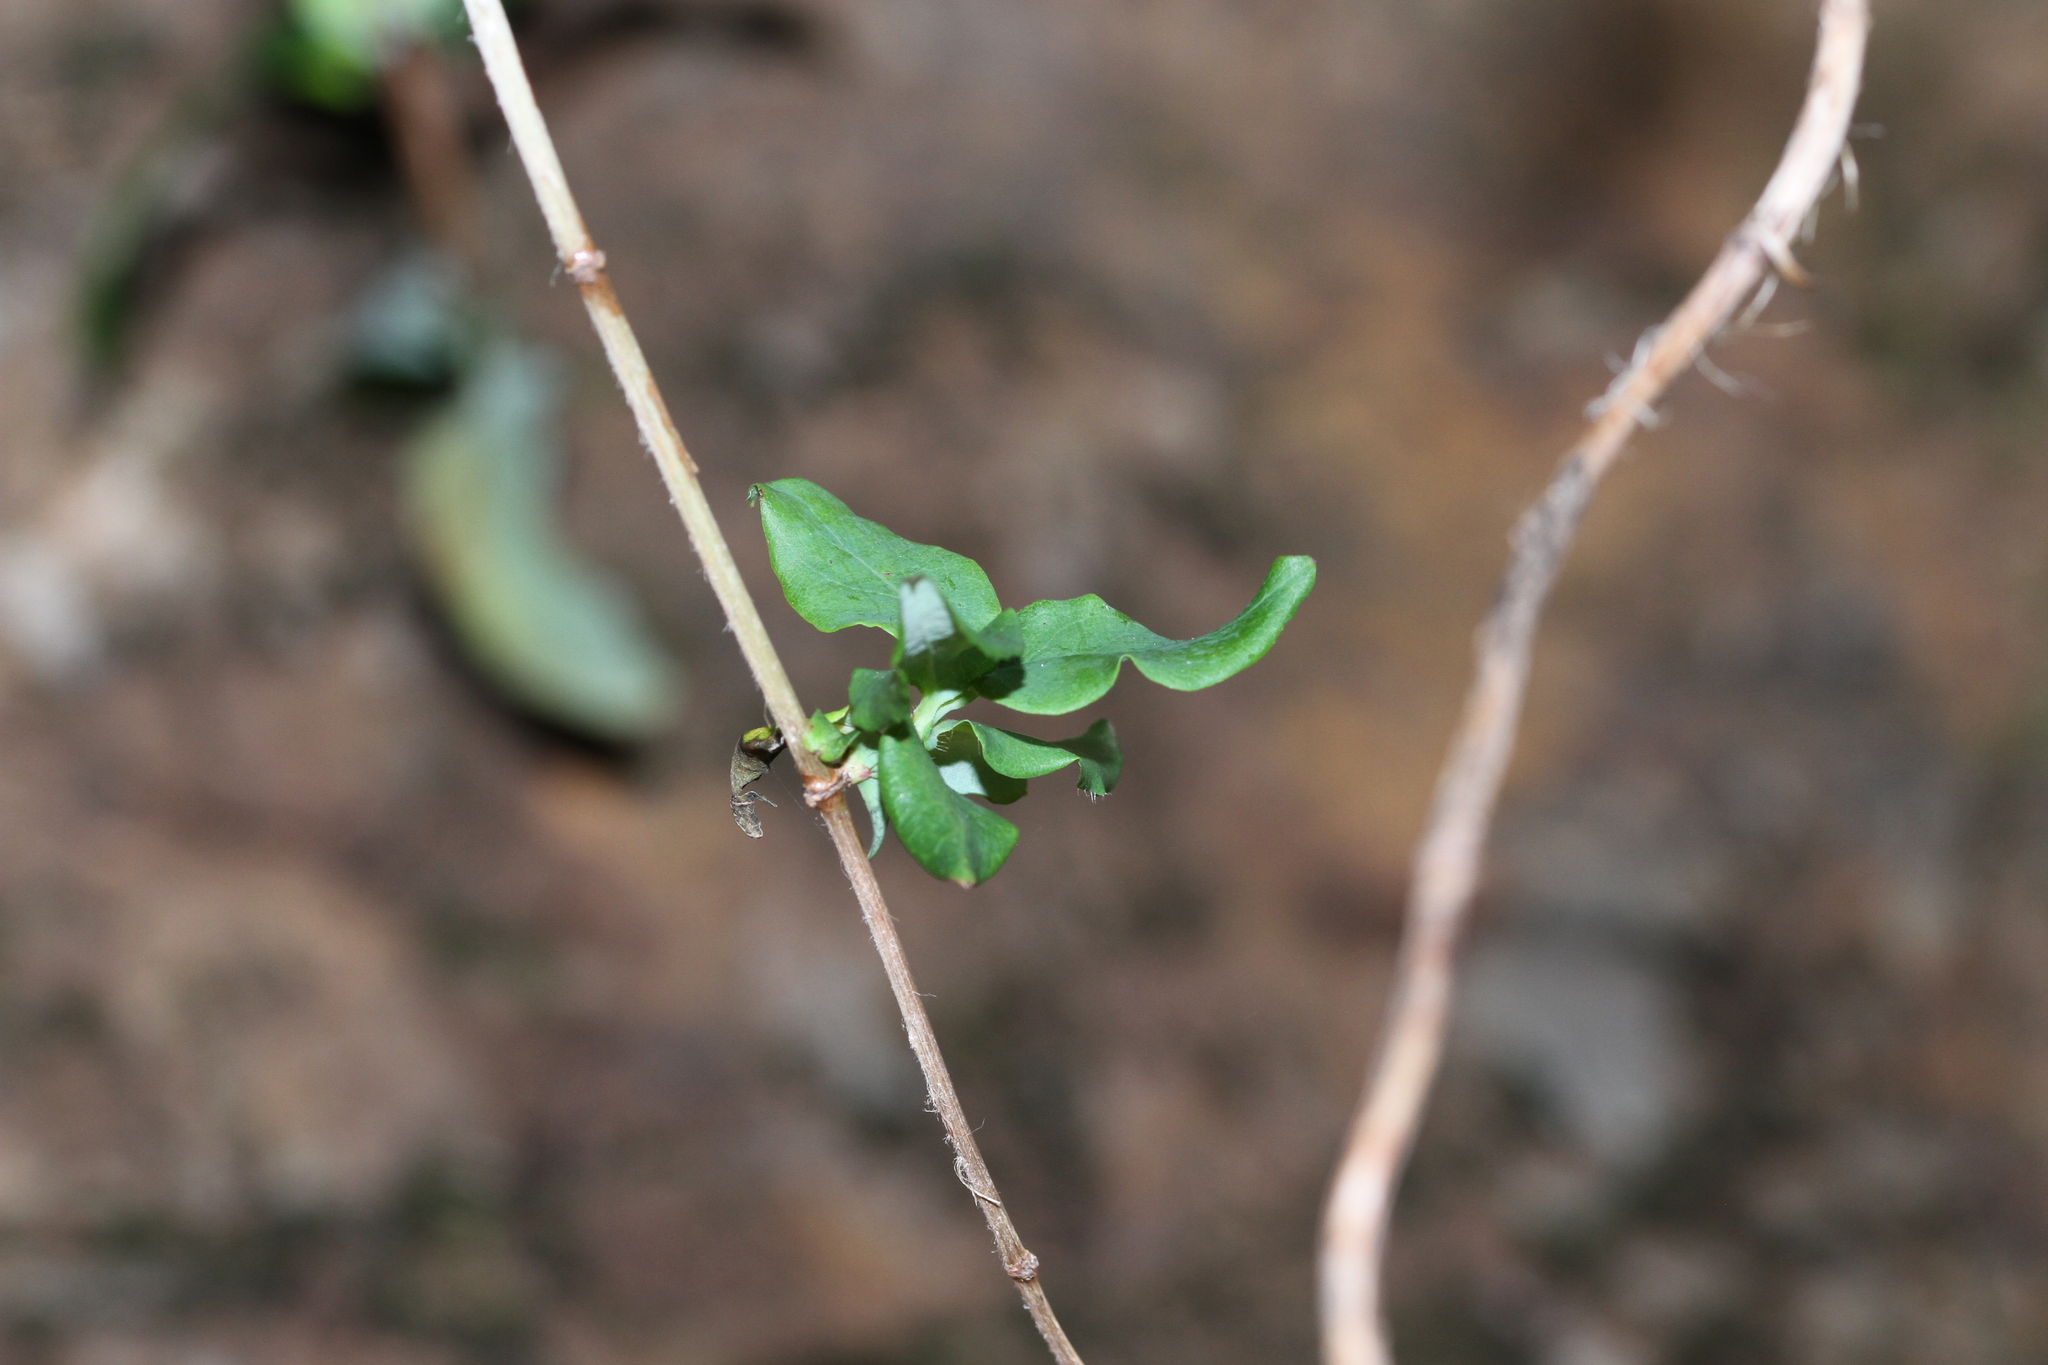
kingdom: Plantae
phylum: Tracheophyta
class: Magnoliopsida
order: Dipsacales
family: Caprifoliaceae
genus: Lonicera
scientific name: Lonicera hispidula
